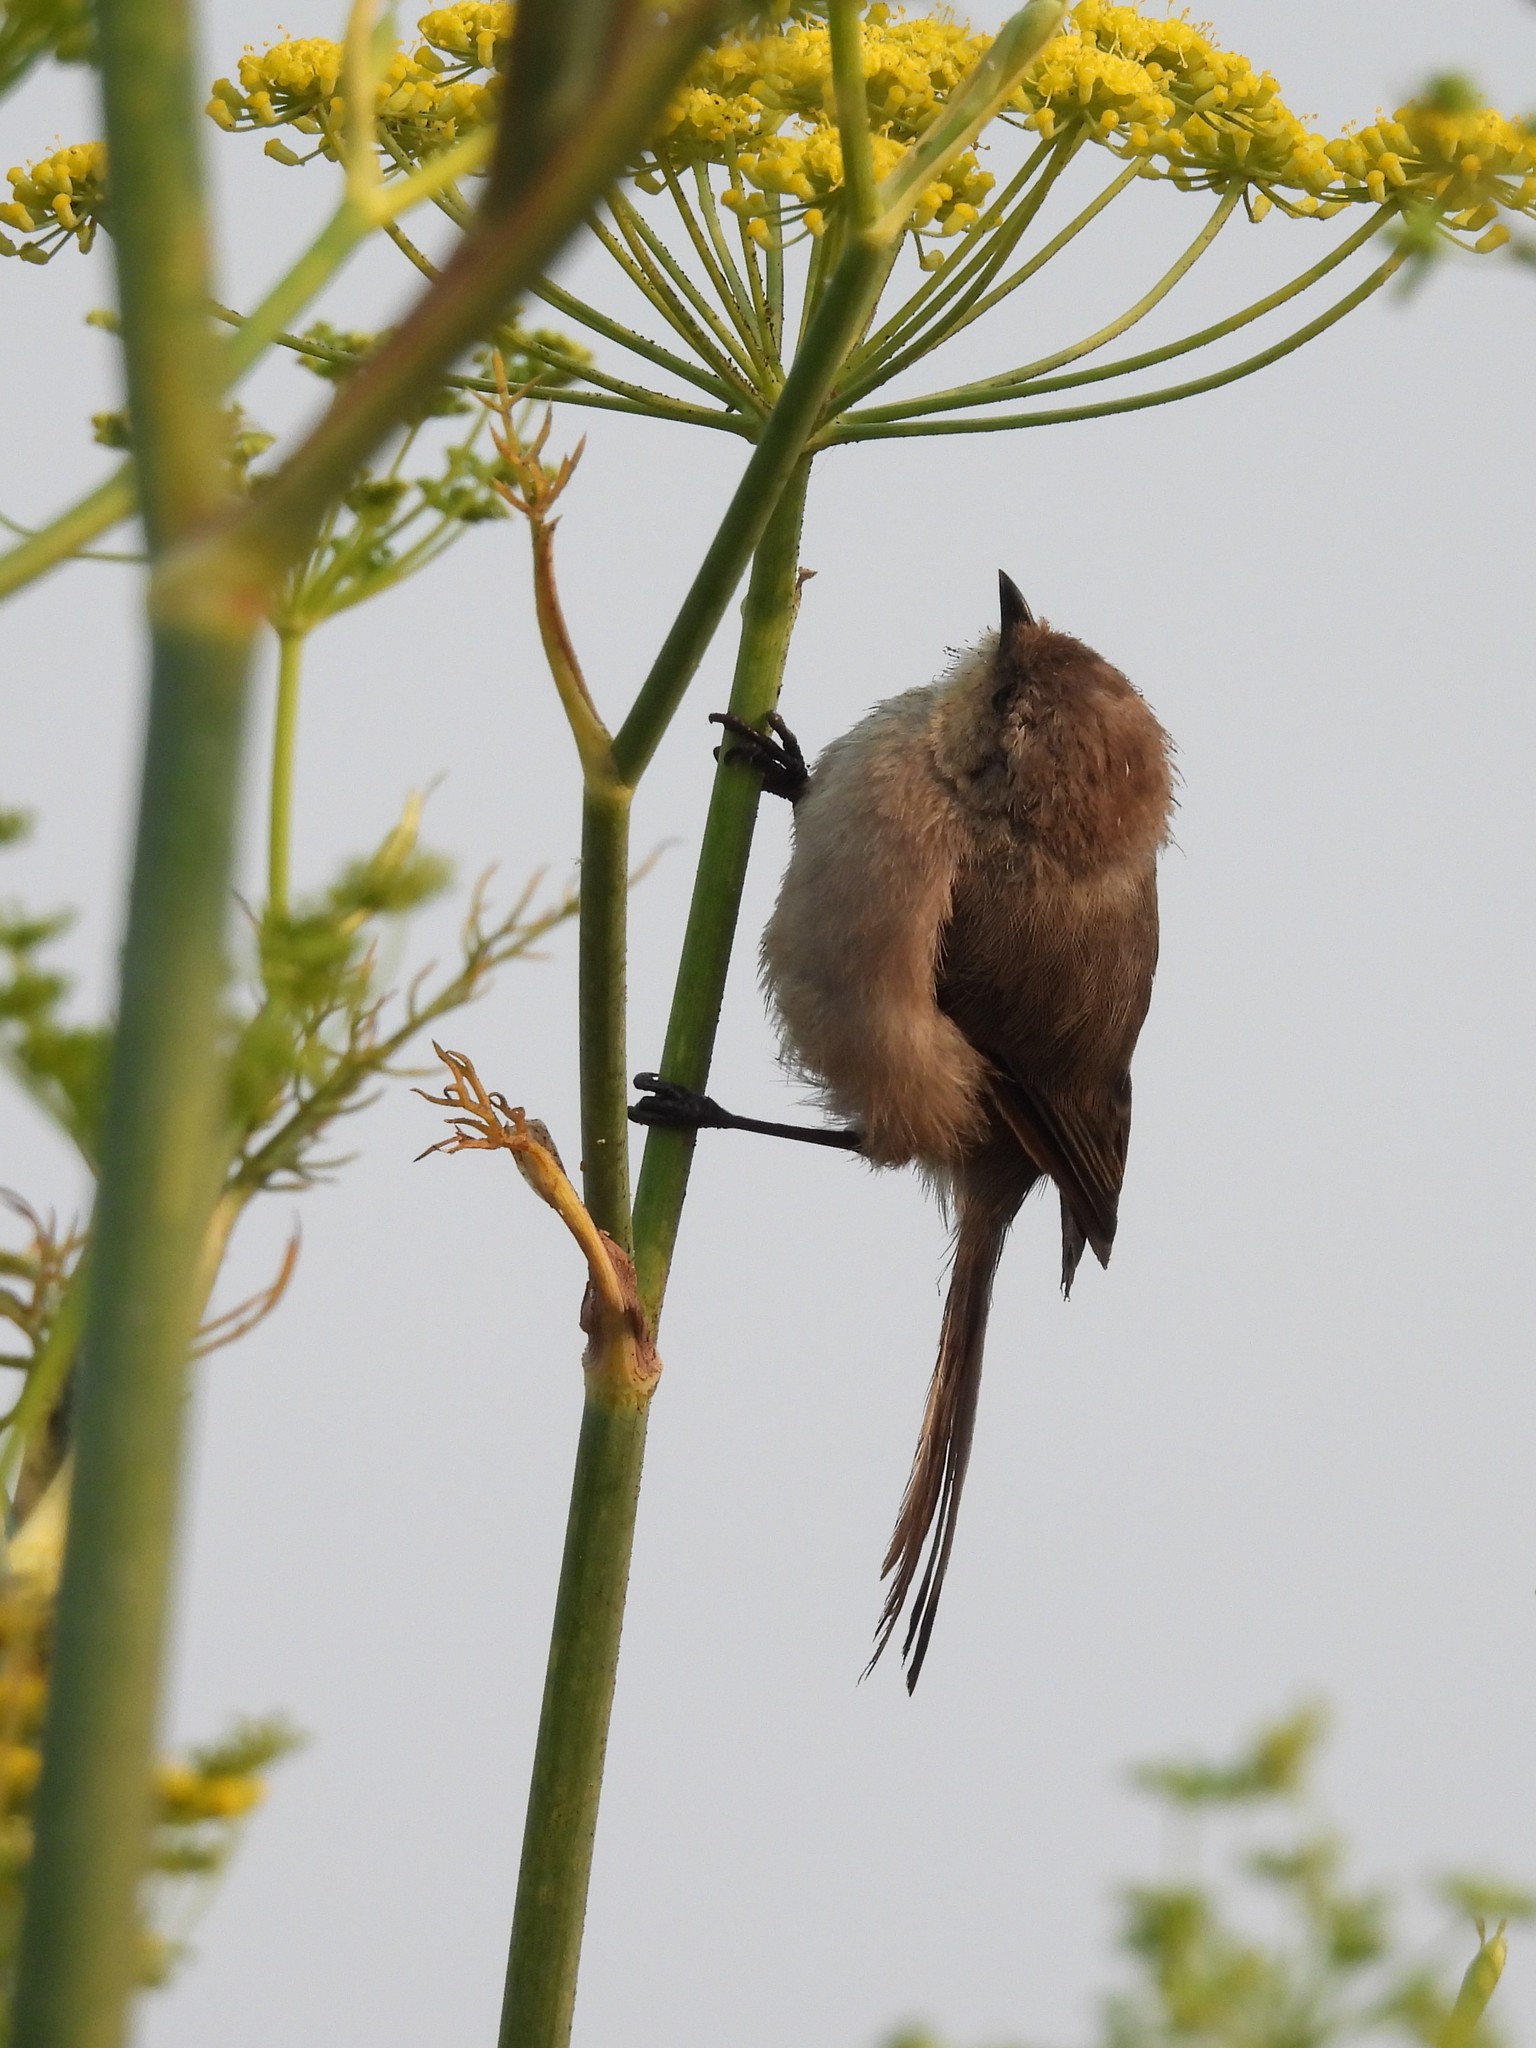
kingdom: Animalia
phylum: Chordata
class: Aves
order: Passeriformes
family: Aegithalidae
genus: Psaltriparus
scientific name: Psaltriparus minimus
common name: American bushtit
